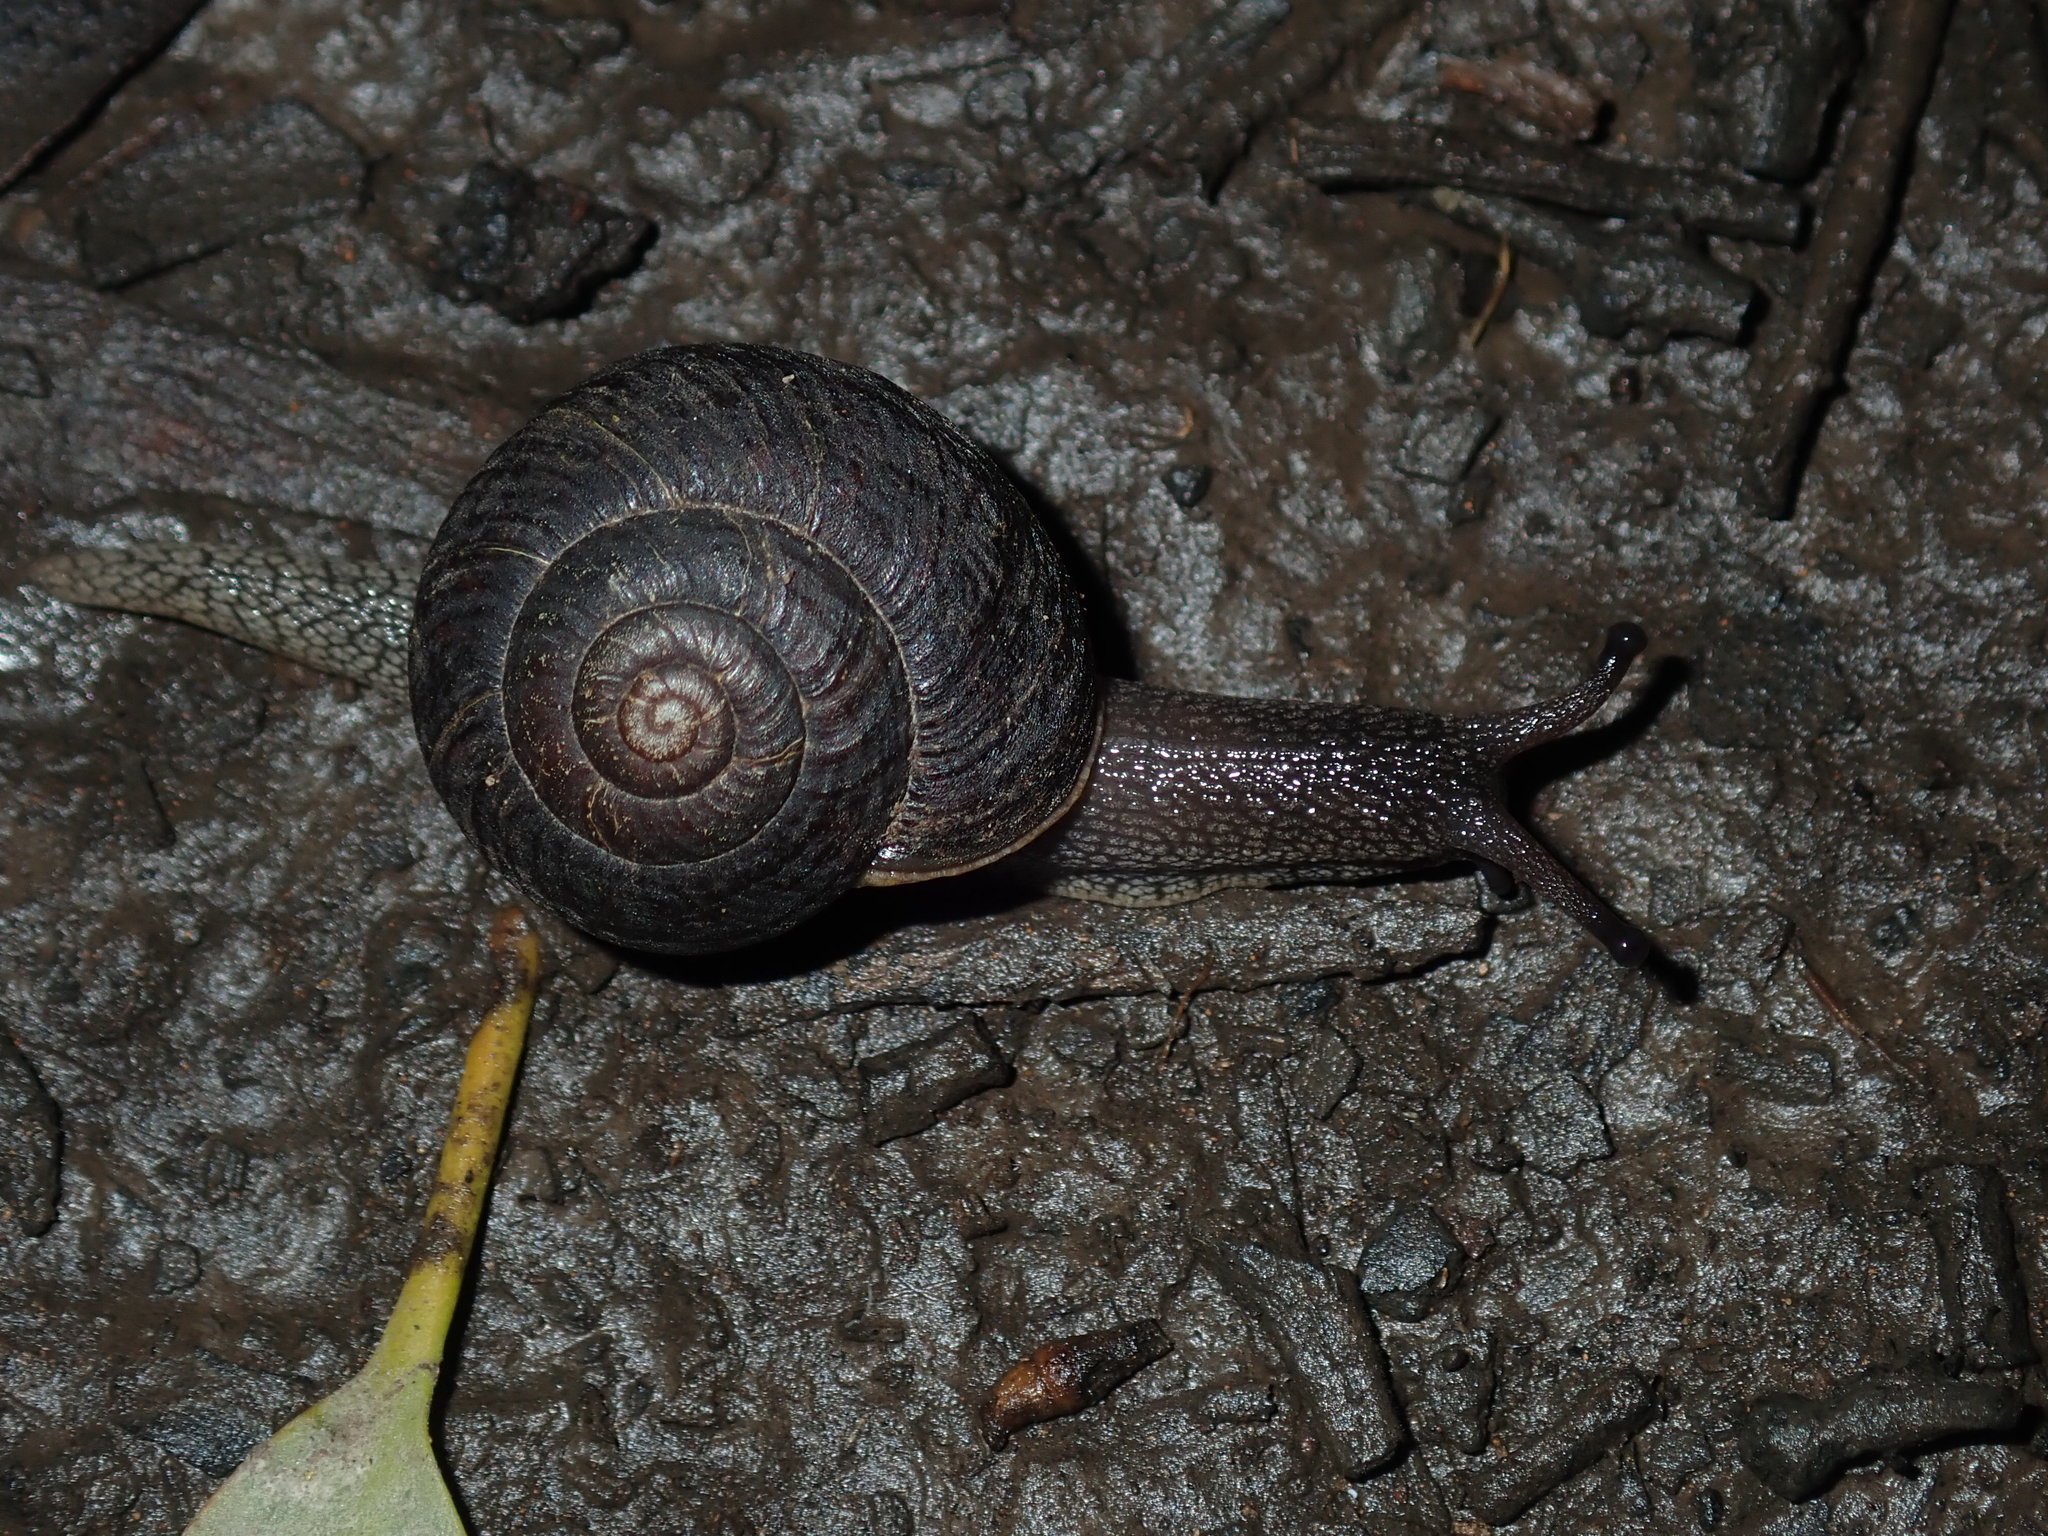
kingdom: Animalia
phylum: Mollusca
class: Gastropoda
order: Stylommatophora
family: Camaenidae
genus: Sauroconcha
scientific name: Sauroconcha sheai
